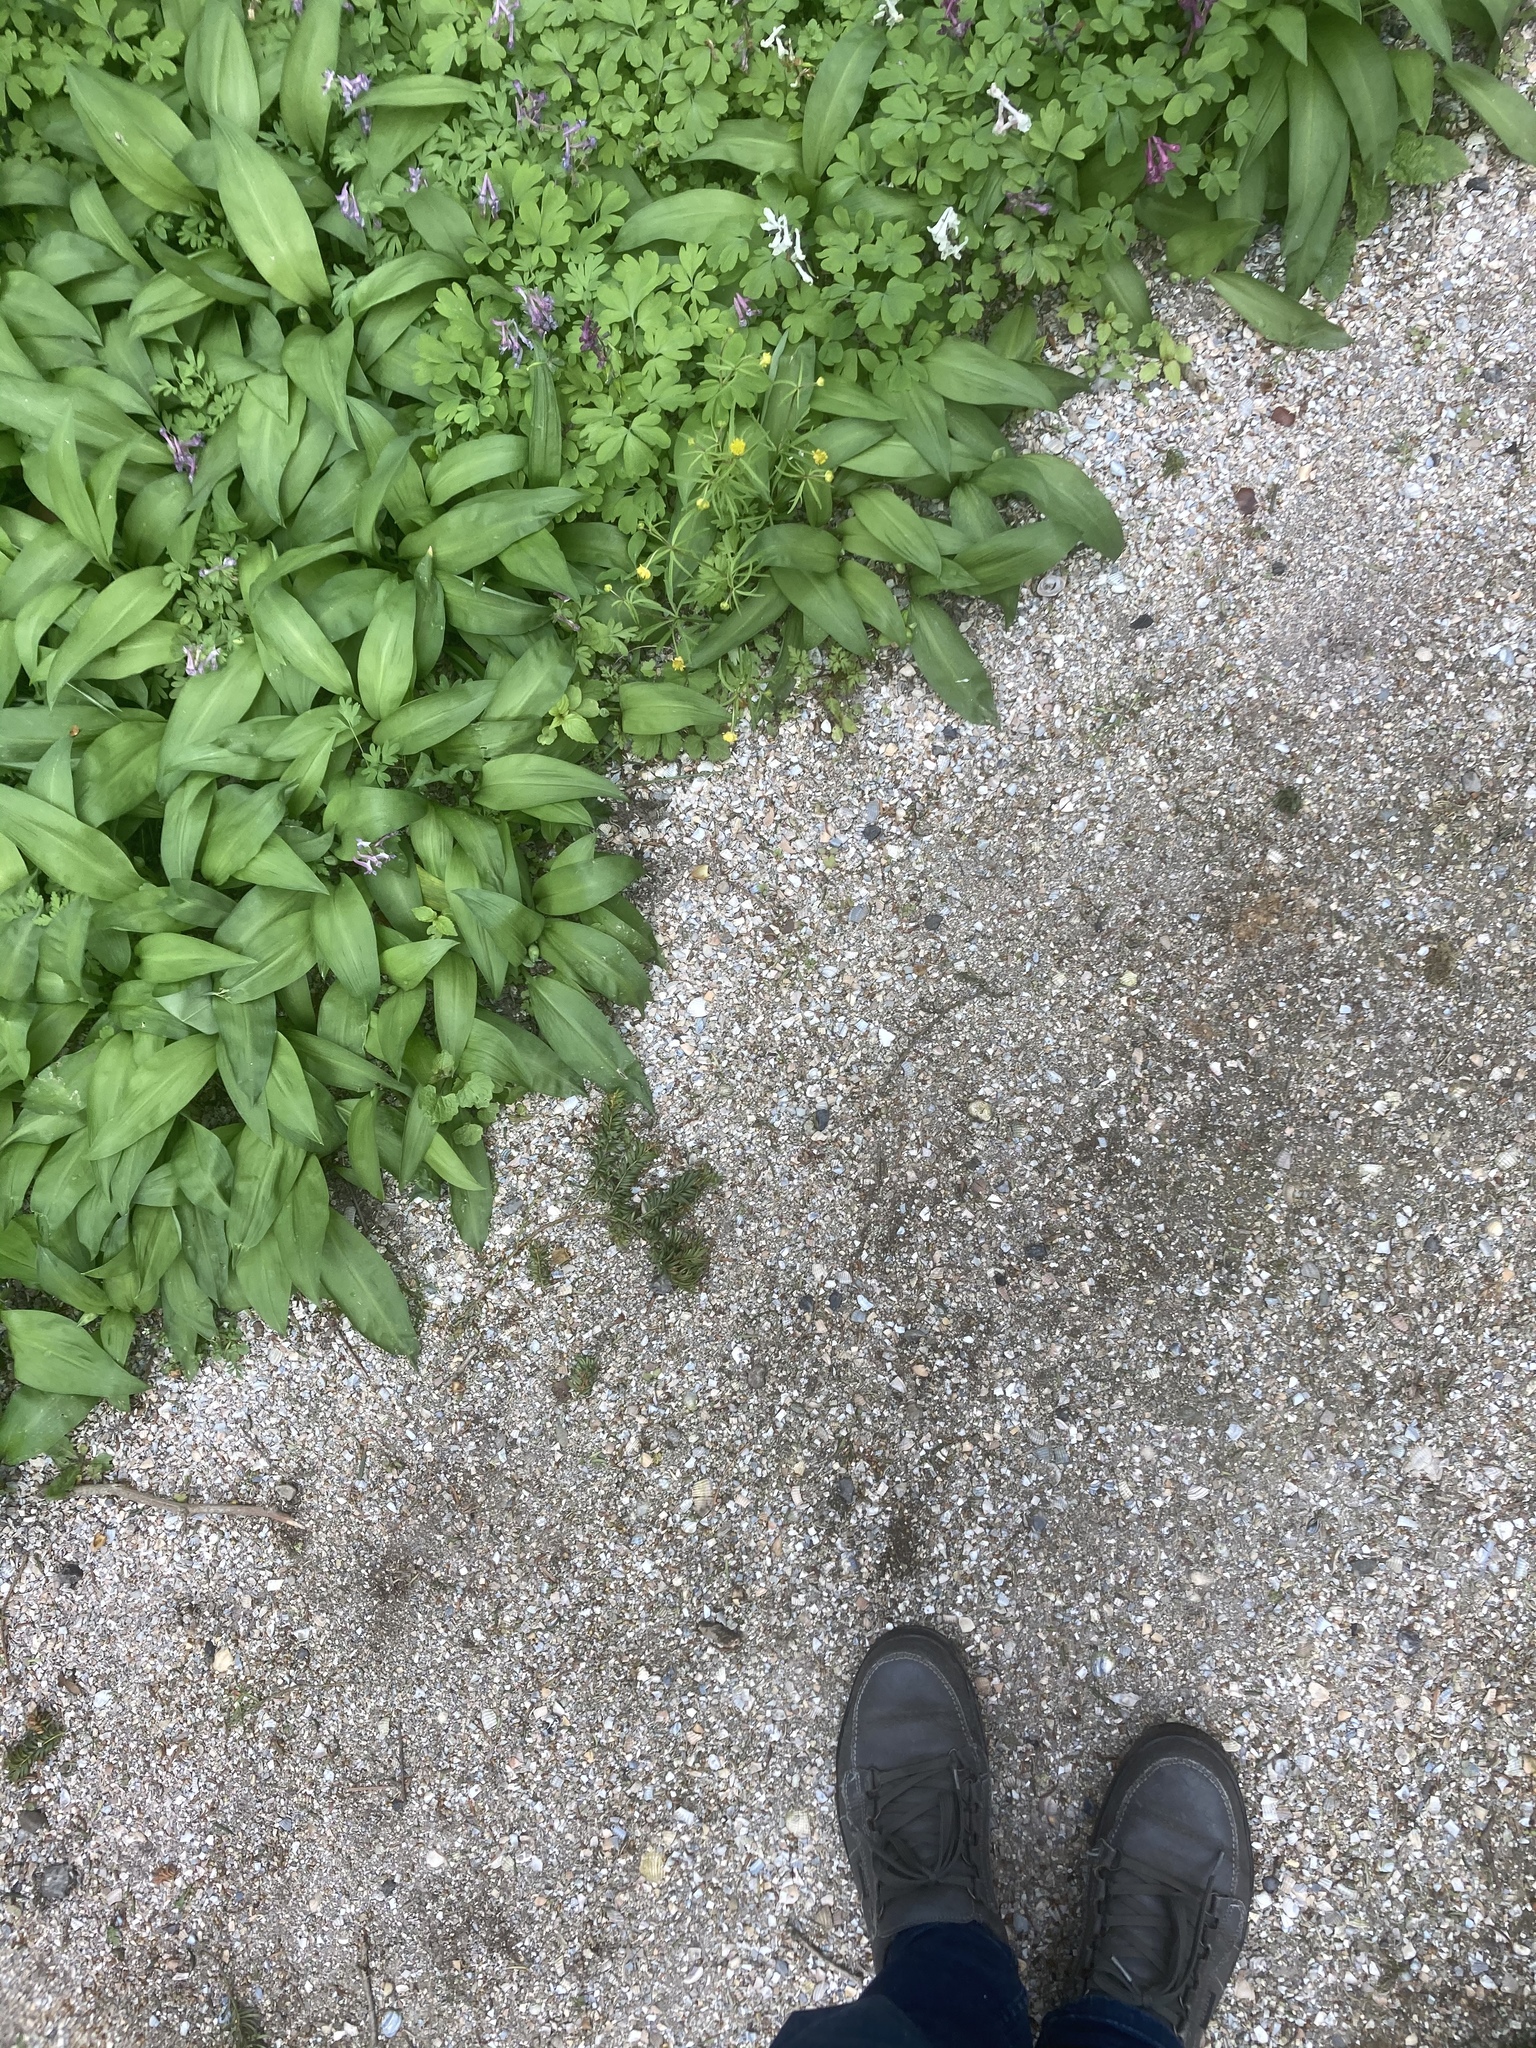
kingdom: Plantae
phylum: Tracheophyta
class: Liliopsida
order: Asparagales
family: Amaryllidaceae
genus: Allium
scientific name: Allium ursinum
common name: Ramsons
